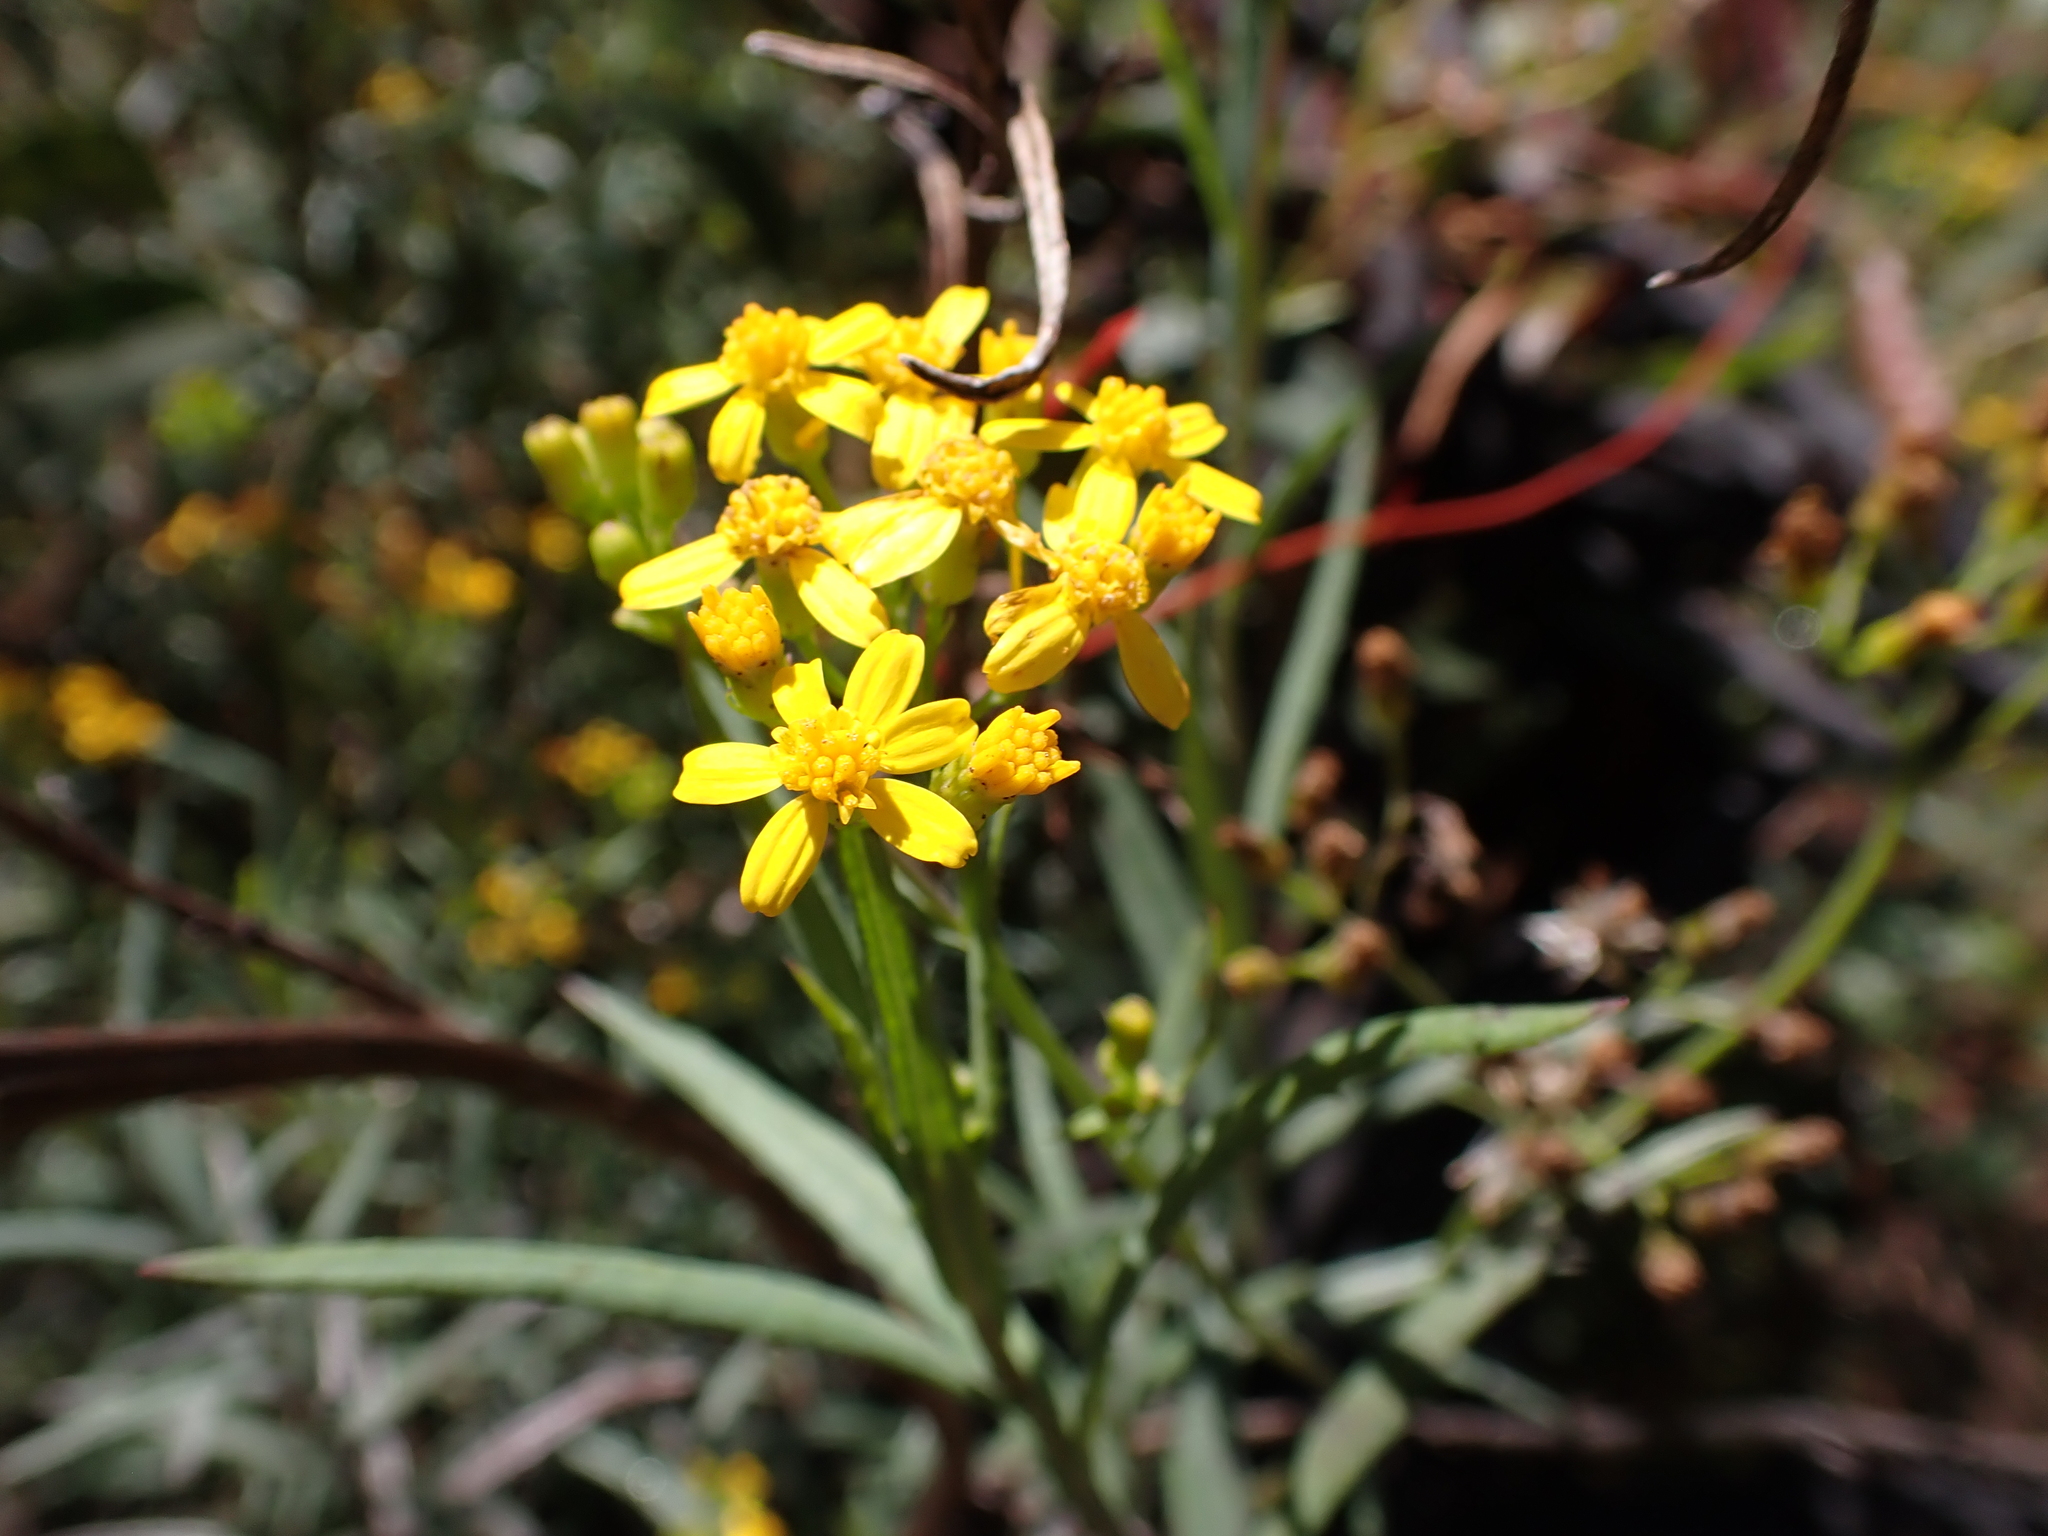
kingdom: Plantae
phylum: Tracheophyta
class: Magnoliopsida
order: Asterales
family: Asteraceae
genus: Senecio
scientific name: Senecio linearifolius
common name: Fireweed groundsel
